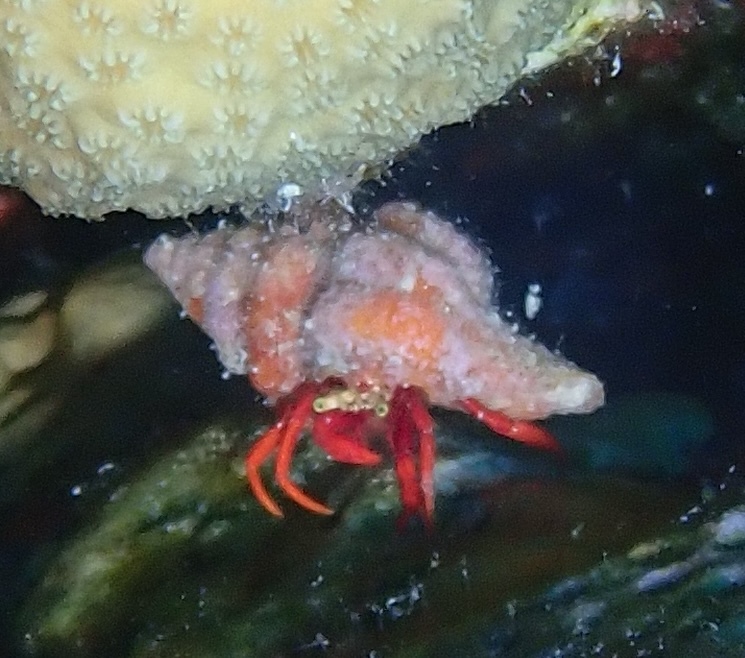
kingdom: Animalia
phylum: Arthropoda
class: Malacostraca
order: Decapoda
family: Diogenidae
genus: Paguristes
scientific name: Paguristes cadenati
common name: Red reef hermit
